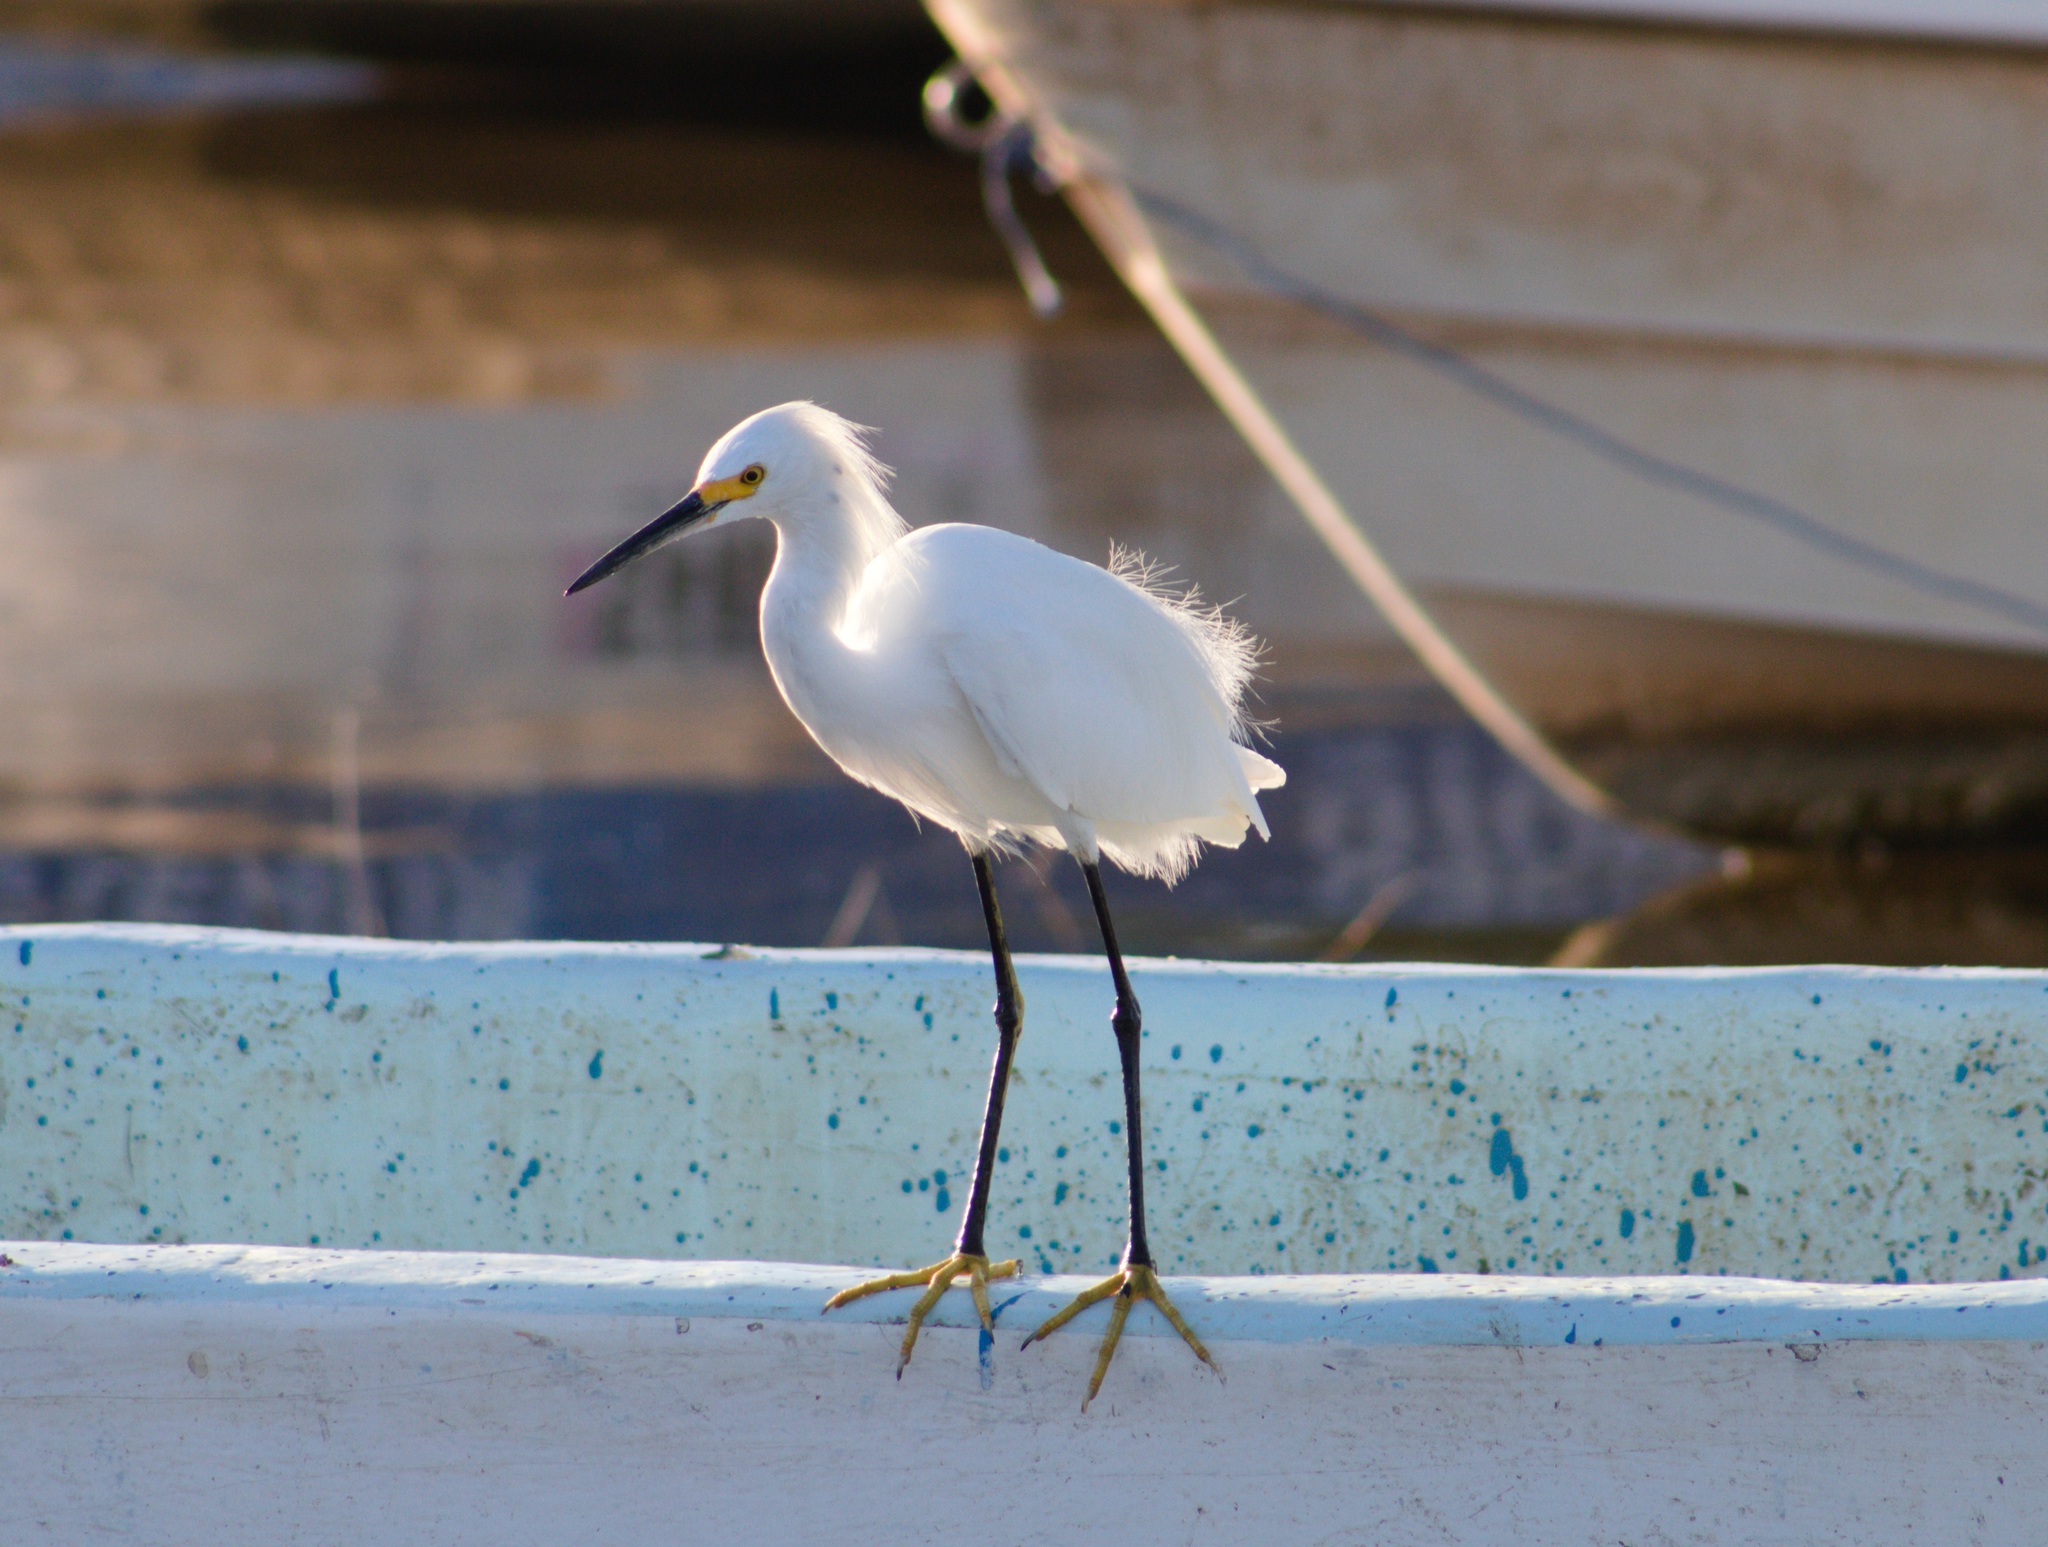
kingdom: Animalia
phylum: Chordata
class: Aves
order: Pelecaniformes
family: Ardeidae
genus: Egretta
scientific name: Egretta thula
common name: Snowy egret
